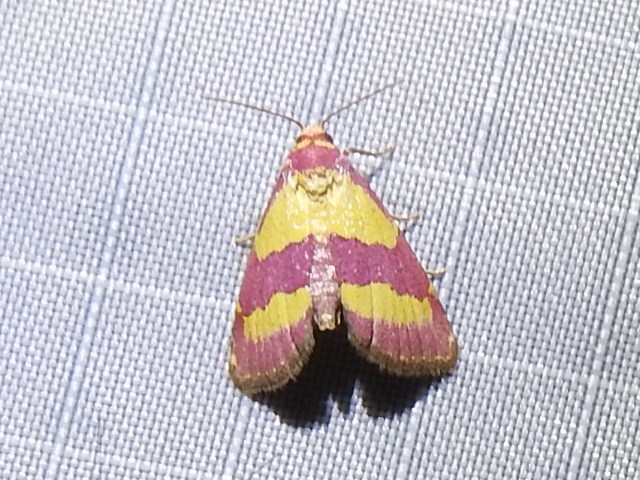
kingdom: Animalia
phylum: Arthropoda
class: Insecta
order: Lepidoptera
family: Noctuidae
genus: Phoenicophanta
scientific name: Phoenicophanta bicolor
